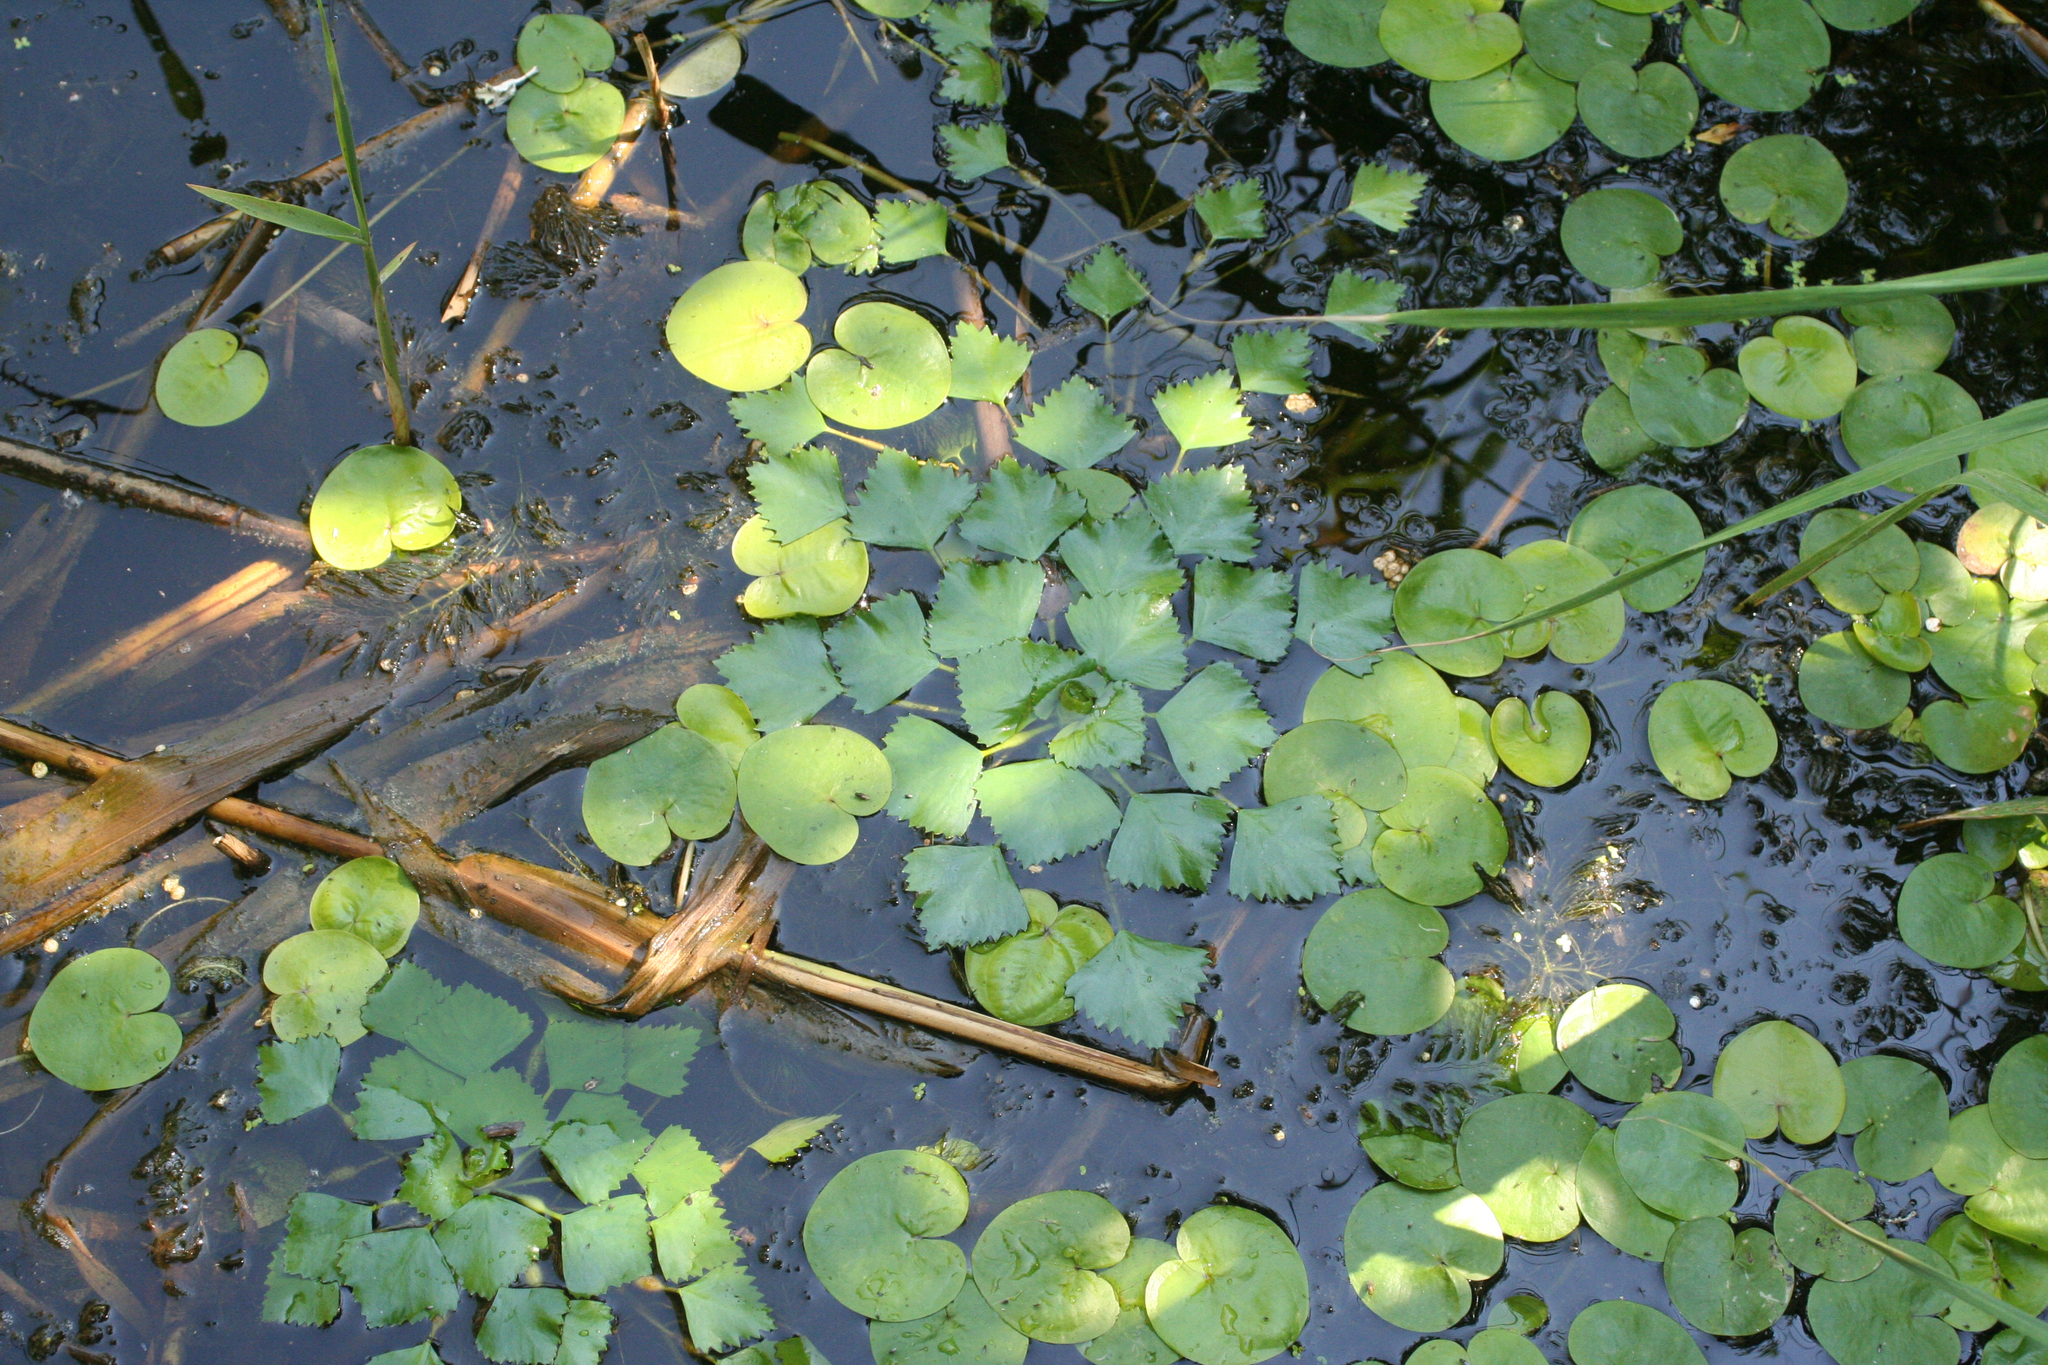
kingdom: Plantae
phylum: Tracheophyta
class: Liliopsida
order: Alismatales
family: Hydrocharitaceae
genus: Hydrocharis
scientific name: Hydrocharis morsus-ranae
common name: Frogbit
